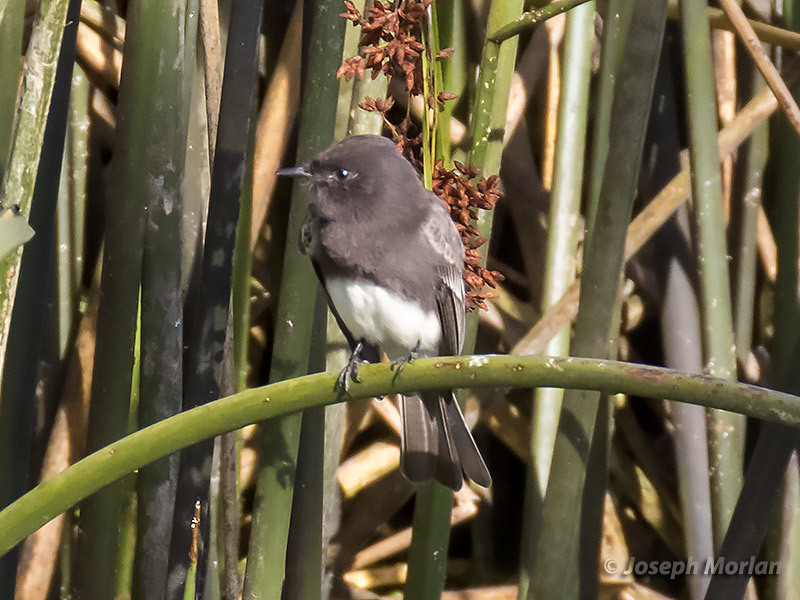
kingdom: Animalia
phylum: Chordata
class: Aves
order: Passeriformes
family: Tyrannidae
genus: Sayornis
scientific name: Sayornis nigricans
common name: Black phoebe
